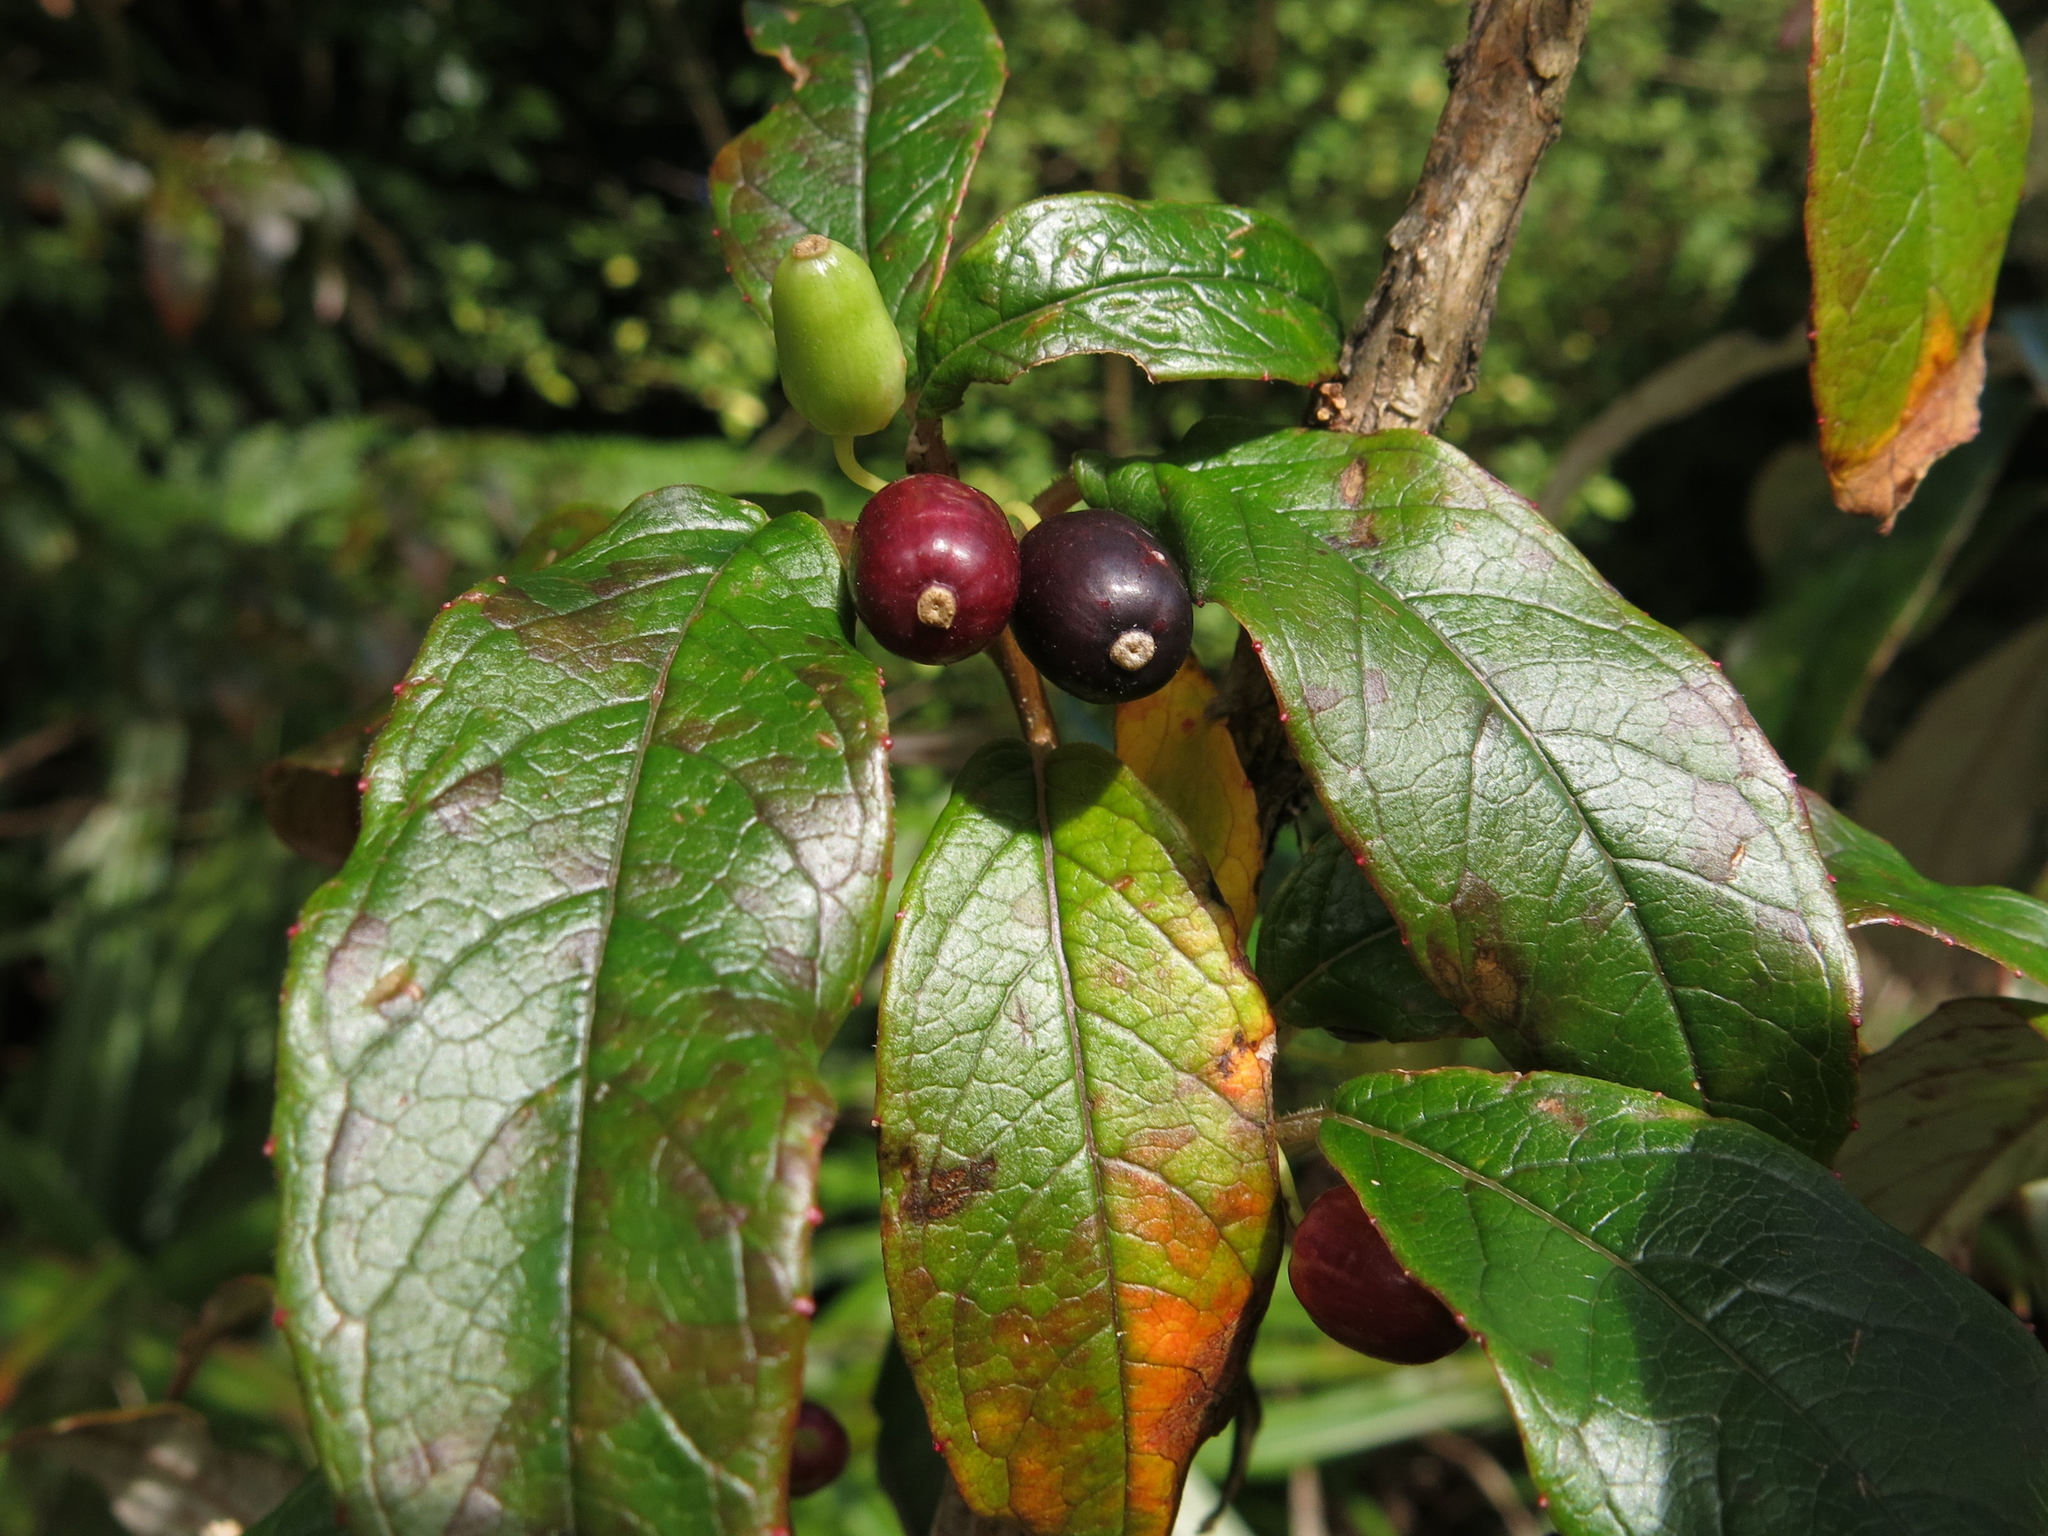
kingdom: Plantae
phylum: Tracheophyta
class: Magnoliopsida
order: Myrtales
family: Onagraceae
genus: Fuchsia
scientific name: Fuchsia excorticata
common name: Tree fuchsia
